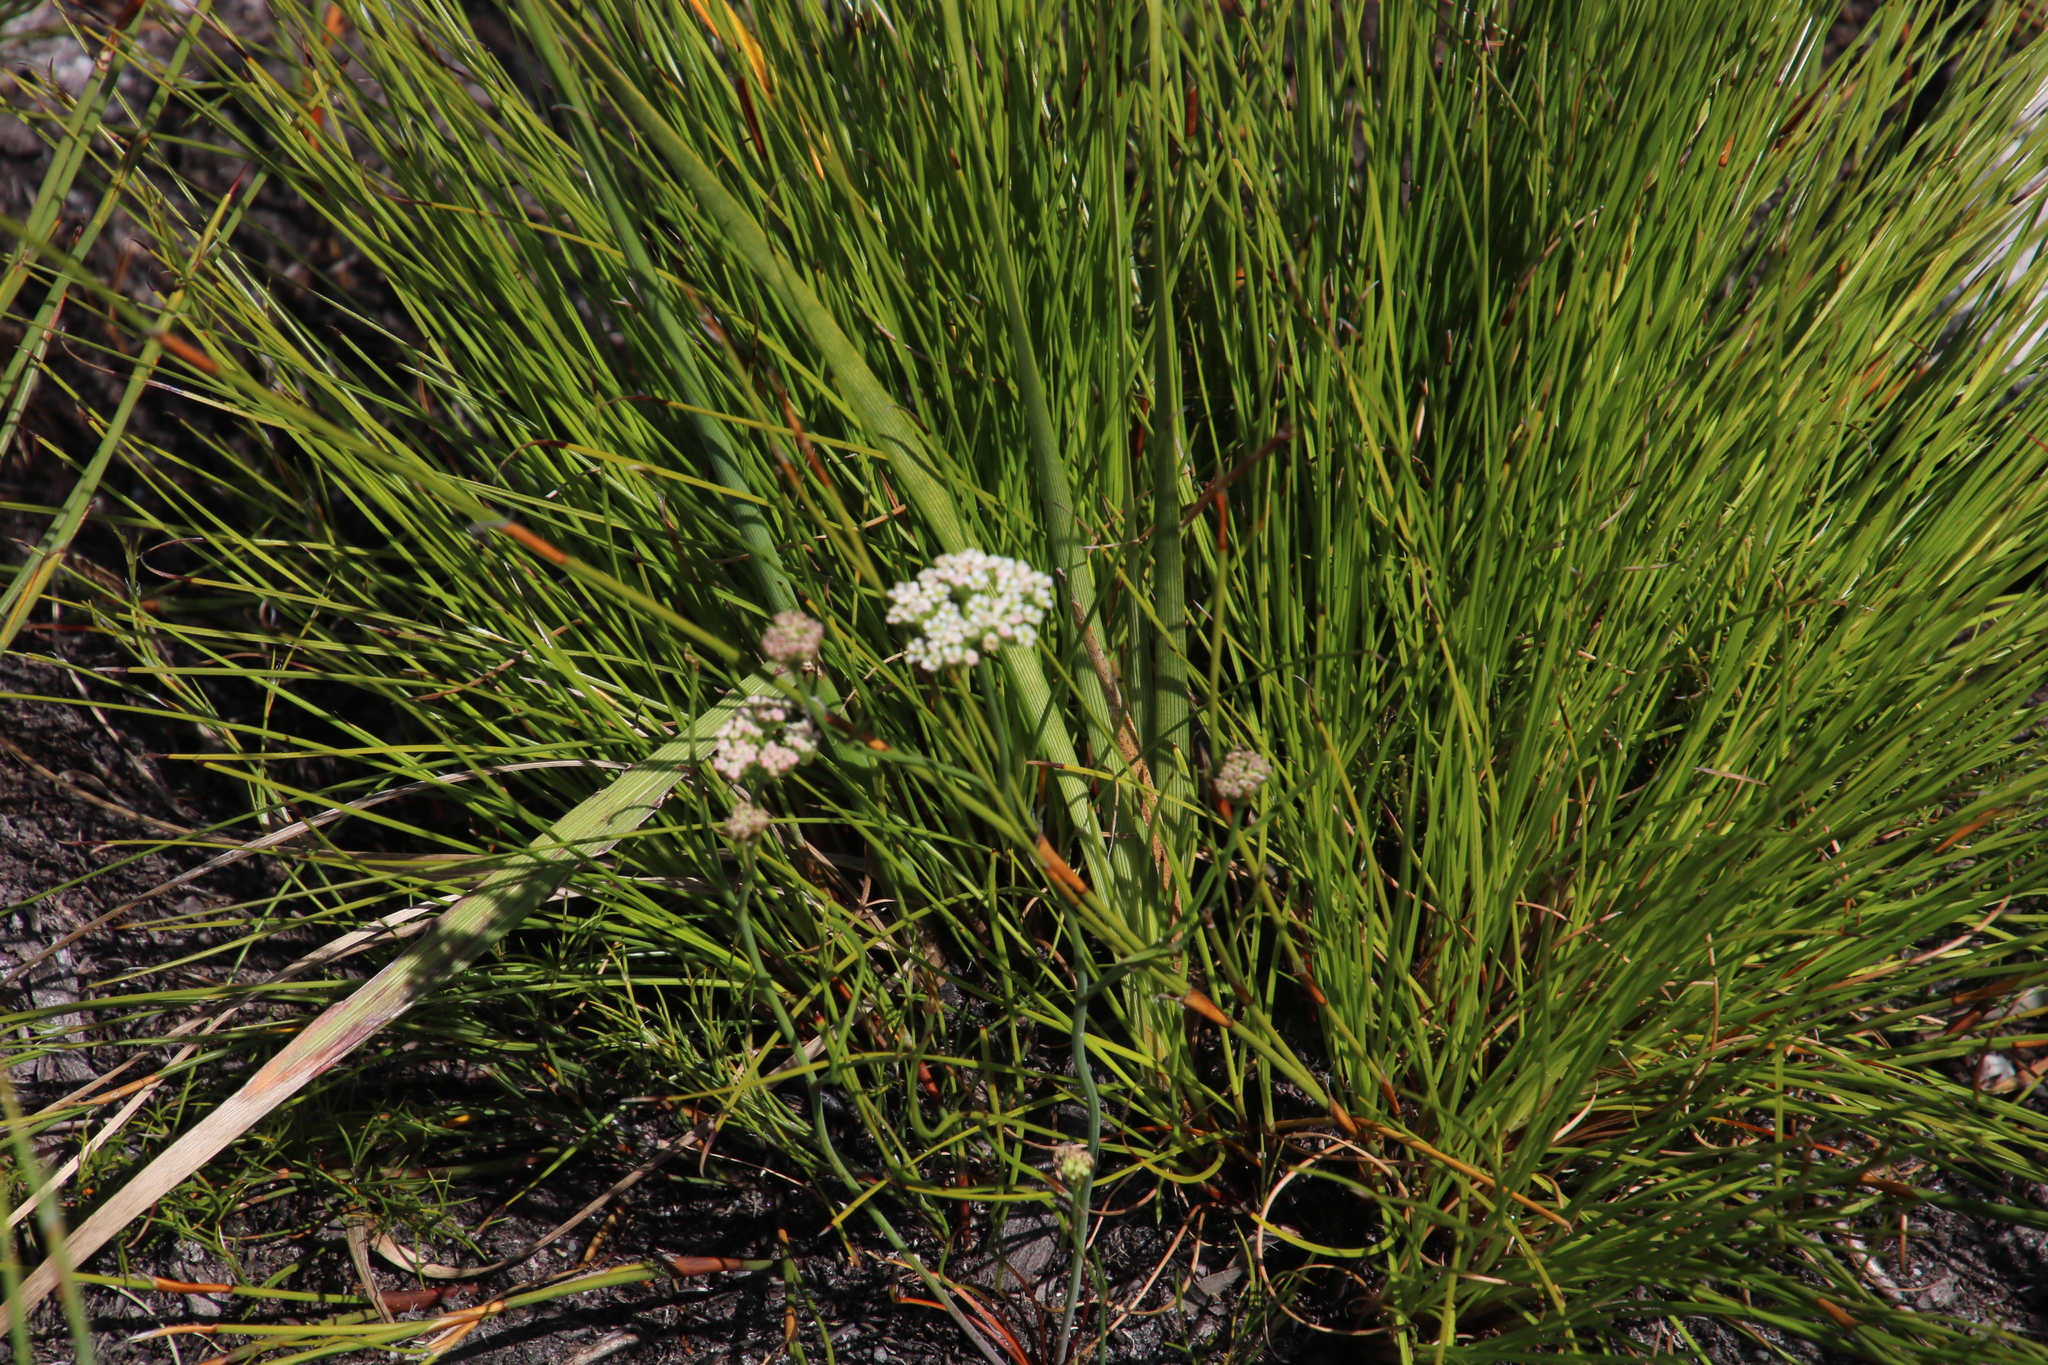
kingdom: Plantae
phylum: Tracheophyta
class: Magnoliopsida
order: Apiales
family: Apiaceae
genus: Itasina
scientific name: Itasina filifolia
